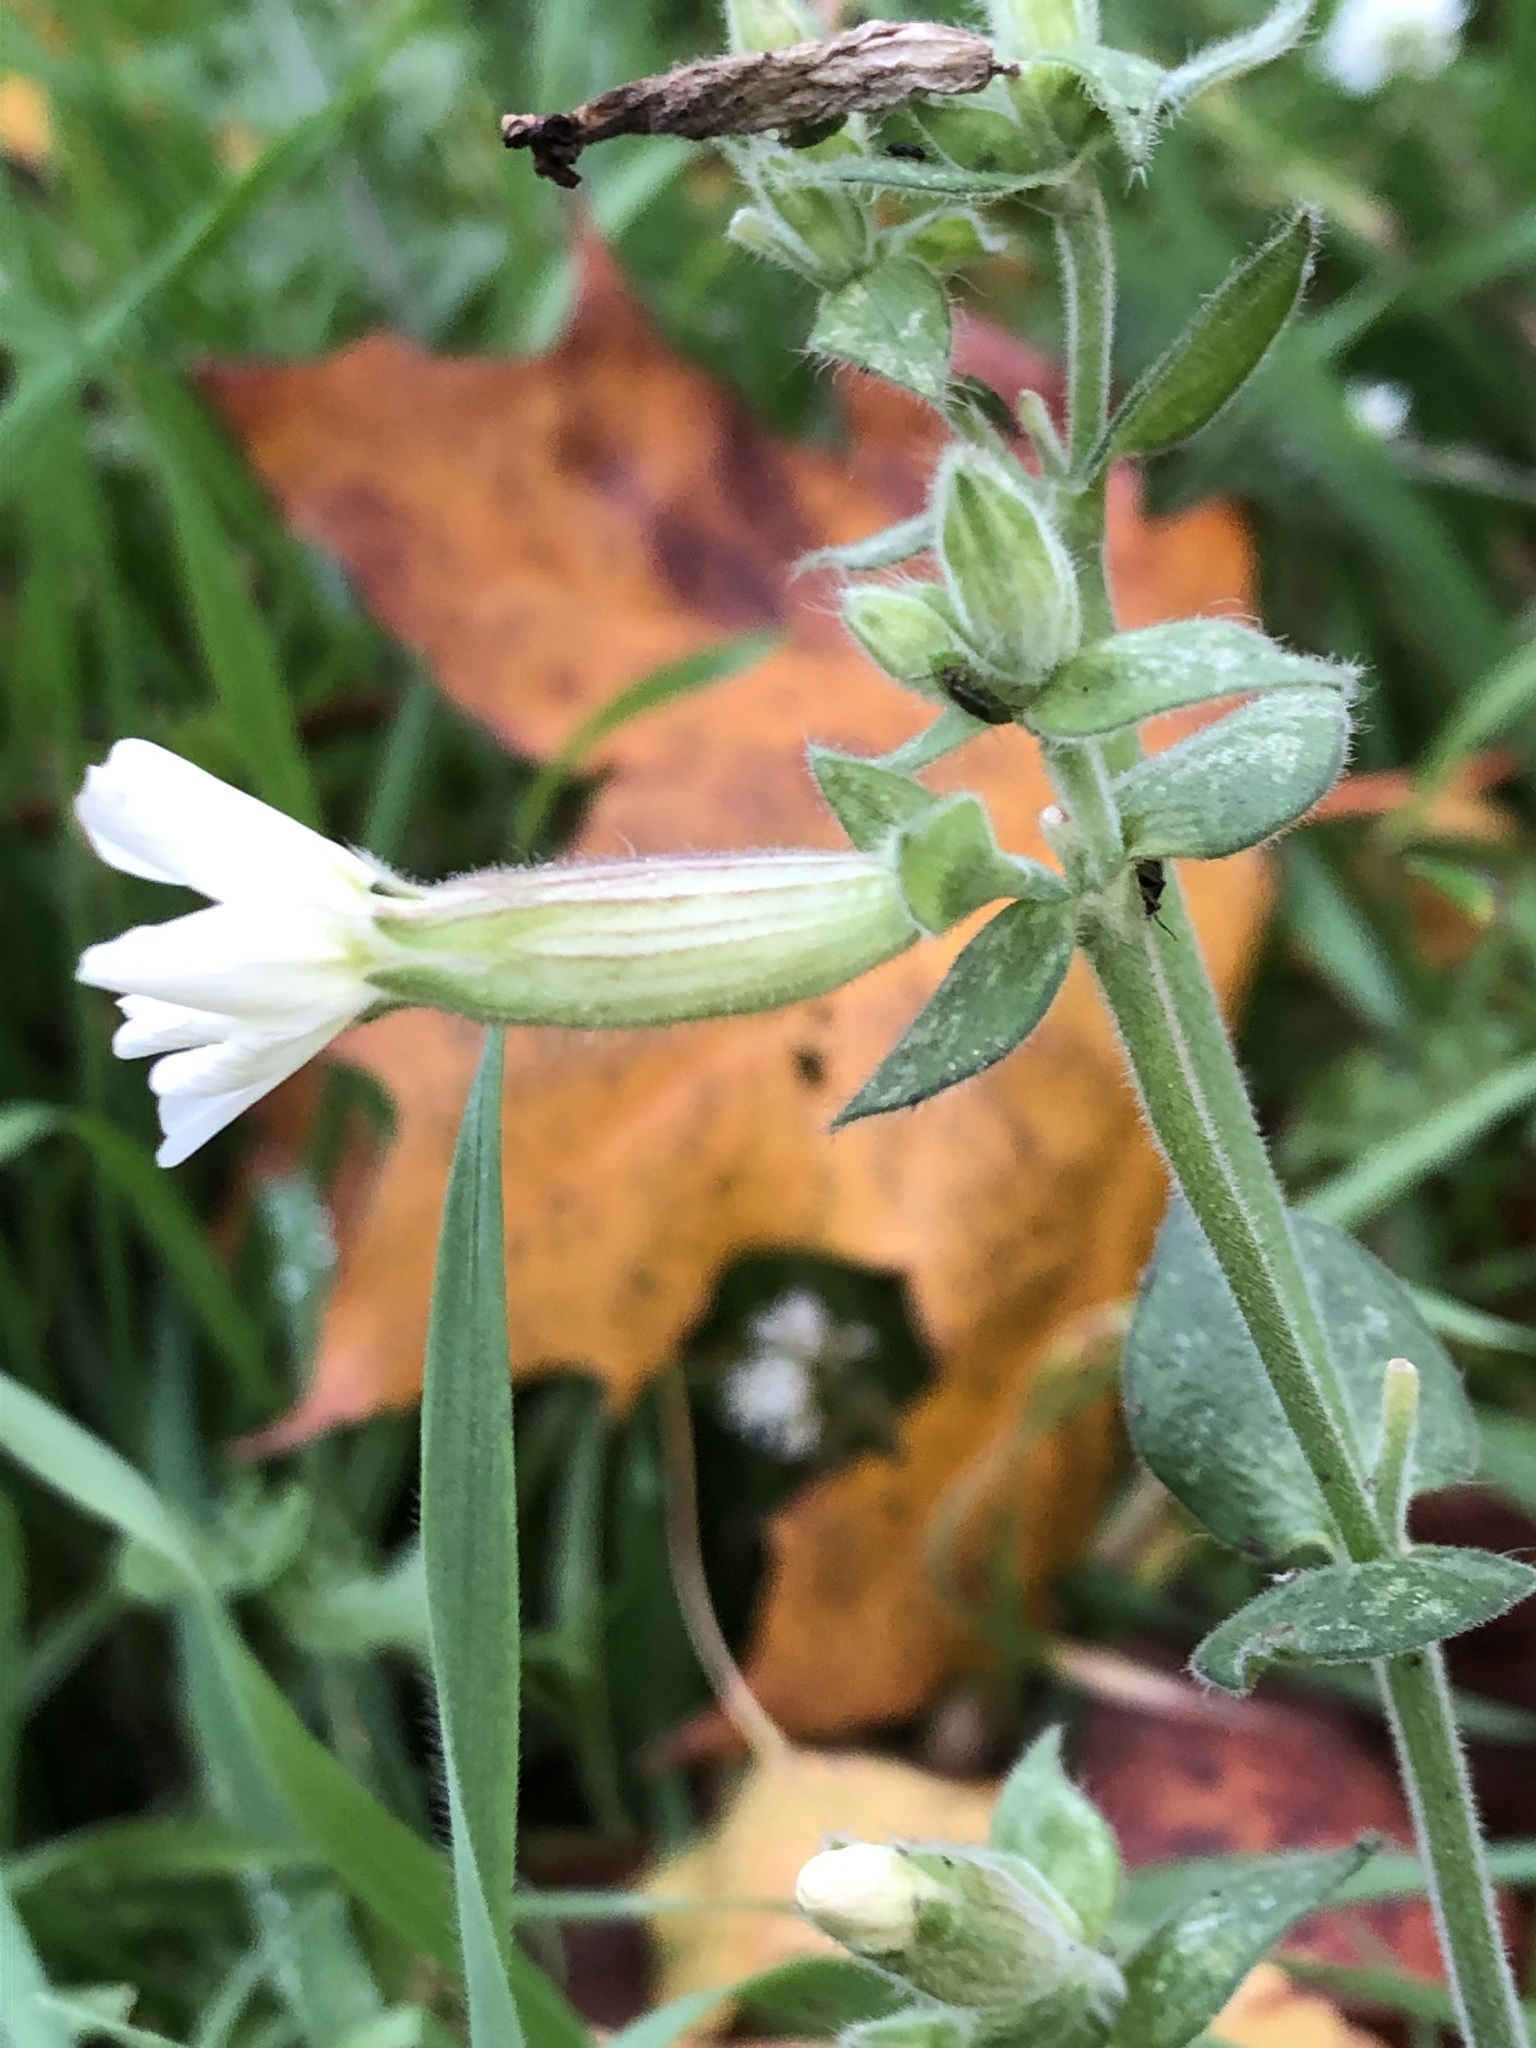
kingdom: Plantae
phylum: Tracheophyta
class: Magnoliopsida
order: Caryophyllales
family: Caryophyllaceae
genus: Silene
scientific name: Silene latifolia
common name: White campion
